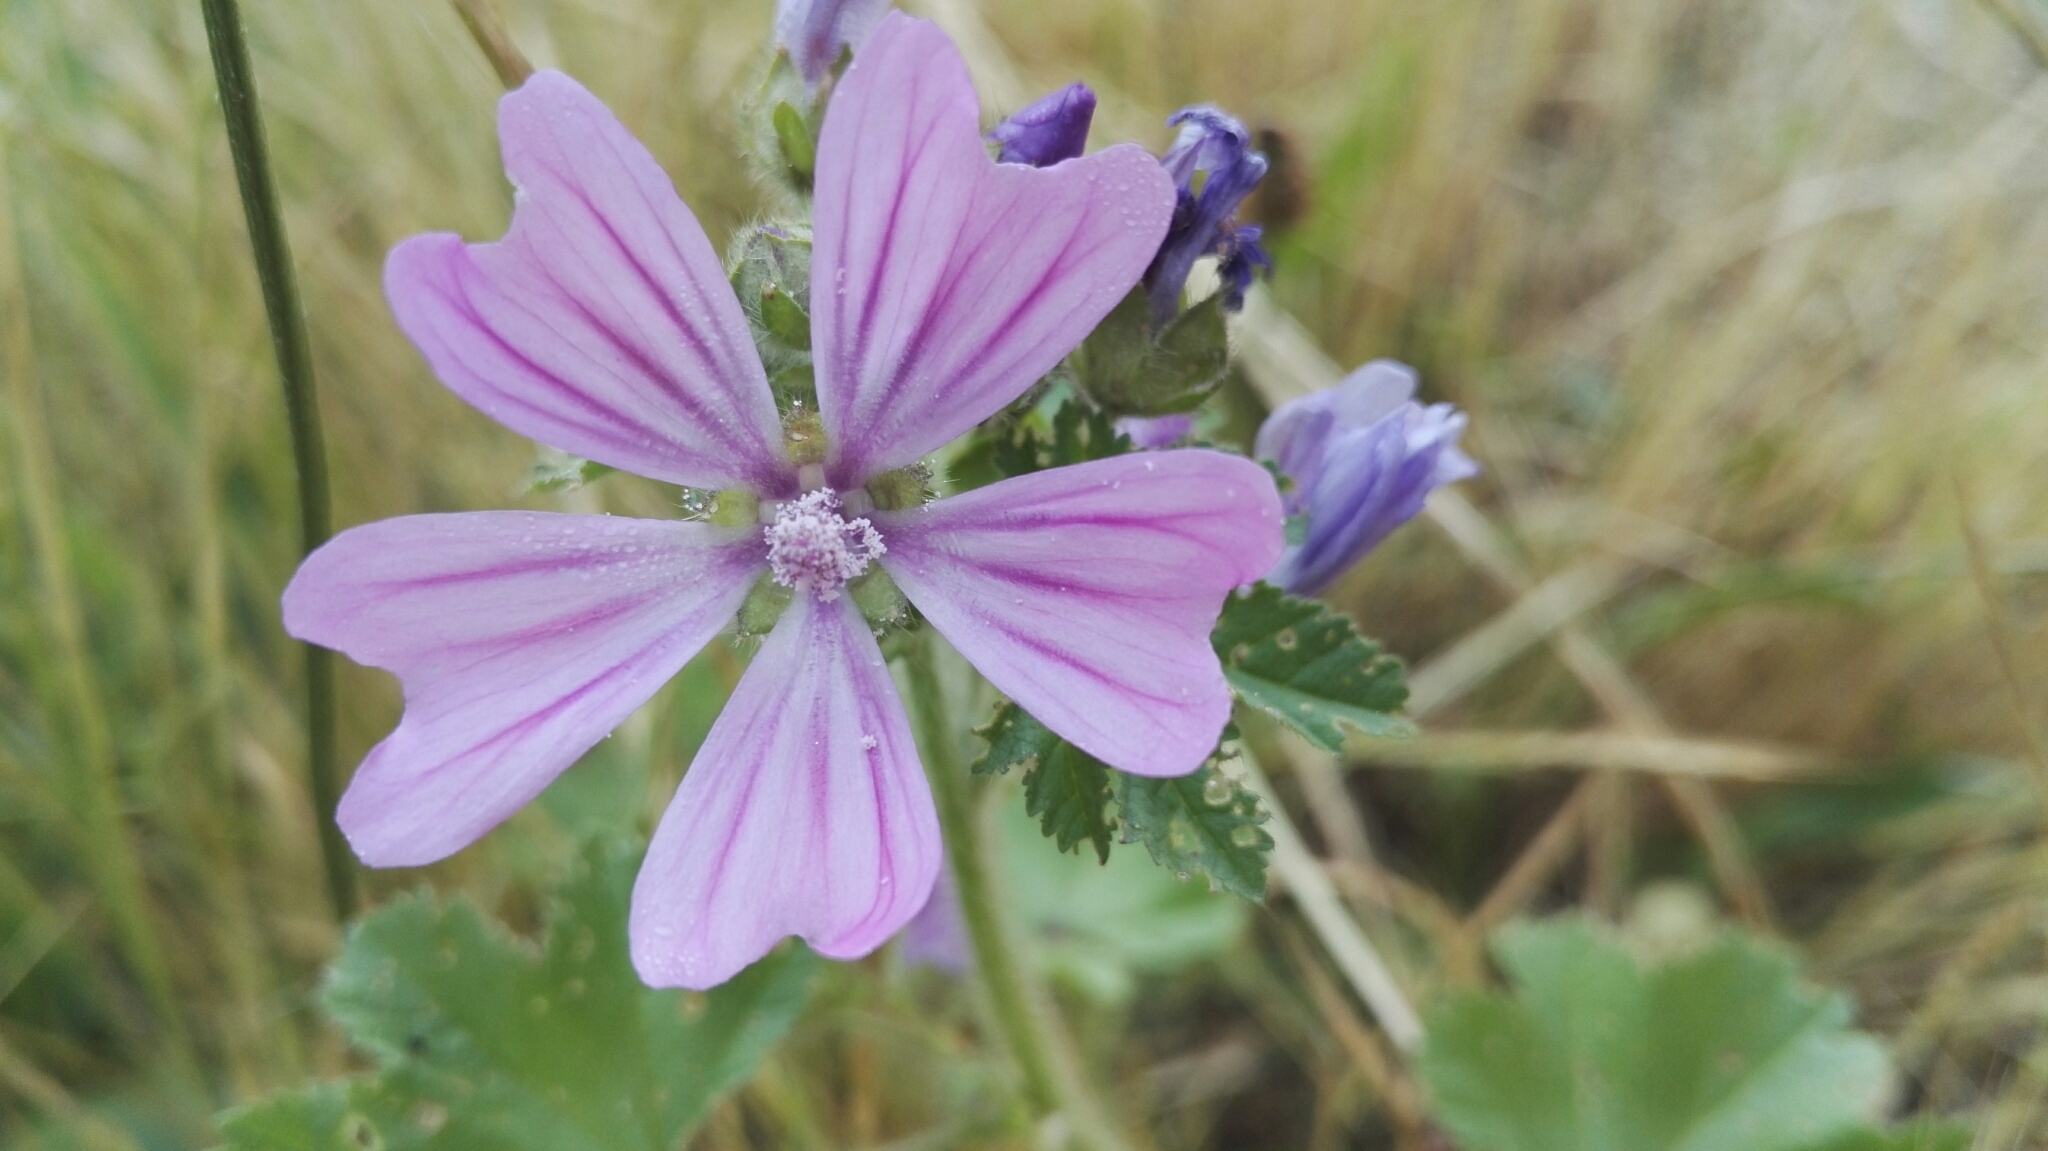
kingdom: Plantae
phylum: Tracheophyta
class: Magnoliopsida
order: Malvales
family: Malvaceae
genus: Malva
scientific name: Malva sylvestris
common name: Common mallow
